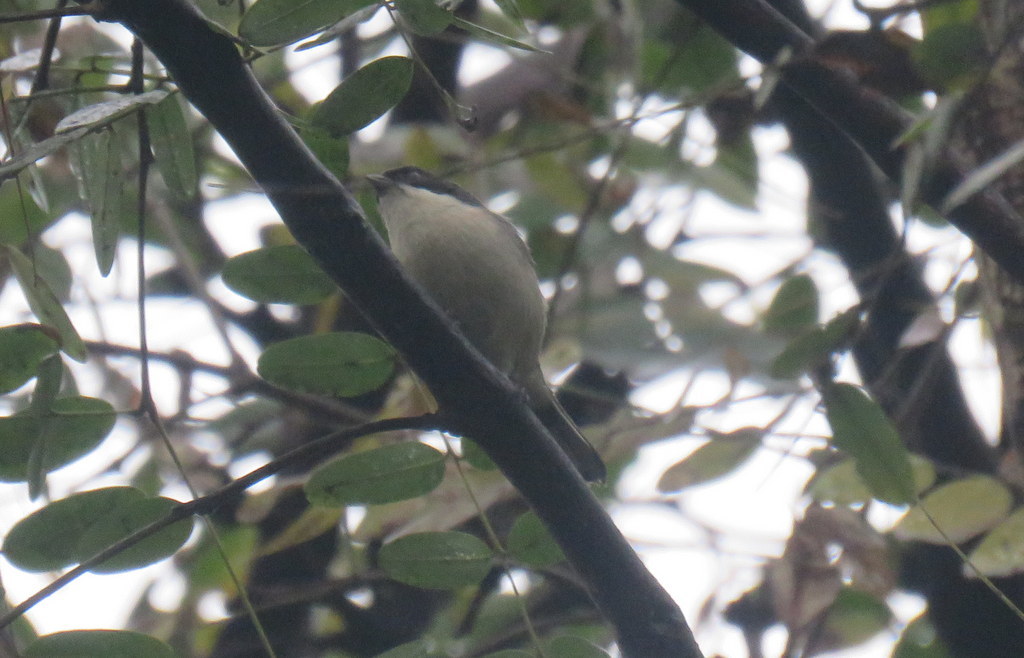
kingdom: Animalia
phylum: Chordata
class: Aves
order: Passeriformes
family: Thraupidae
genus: Microspingus
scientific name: Microspingus melanoleucus
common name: Black-capped warbling-finch
